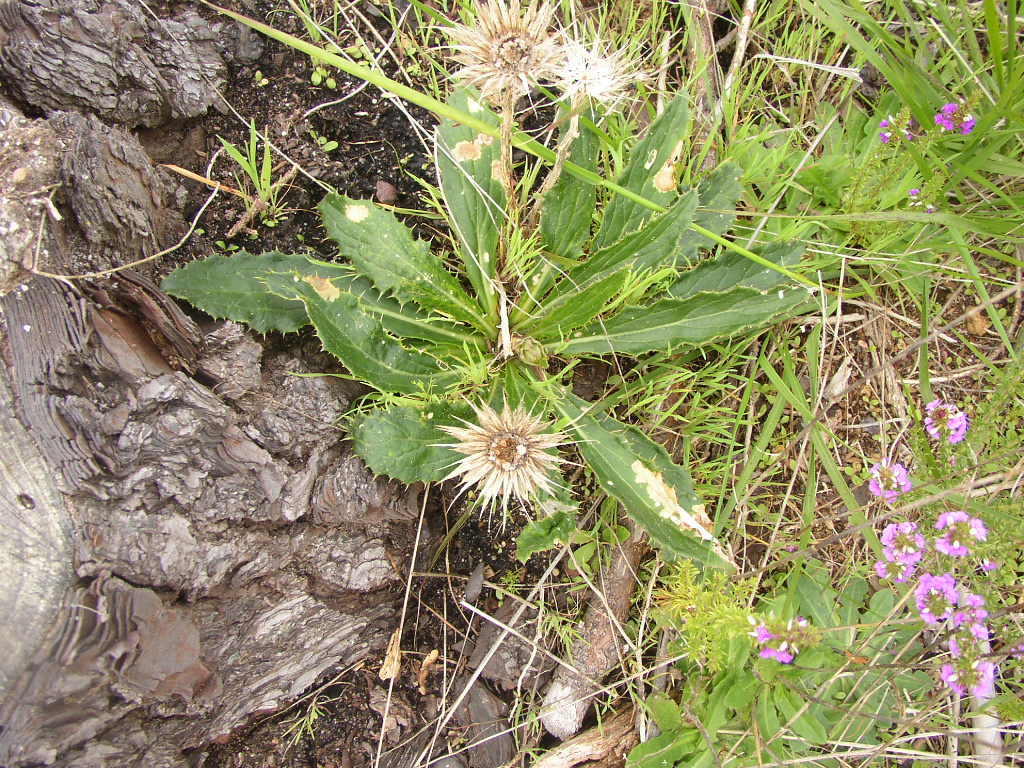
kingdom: Plantae
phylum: Tracheophyta
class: Magnoliopsida
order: Asterales
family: Asteraceae
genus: Berkheya
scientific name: Berkheya armata
